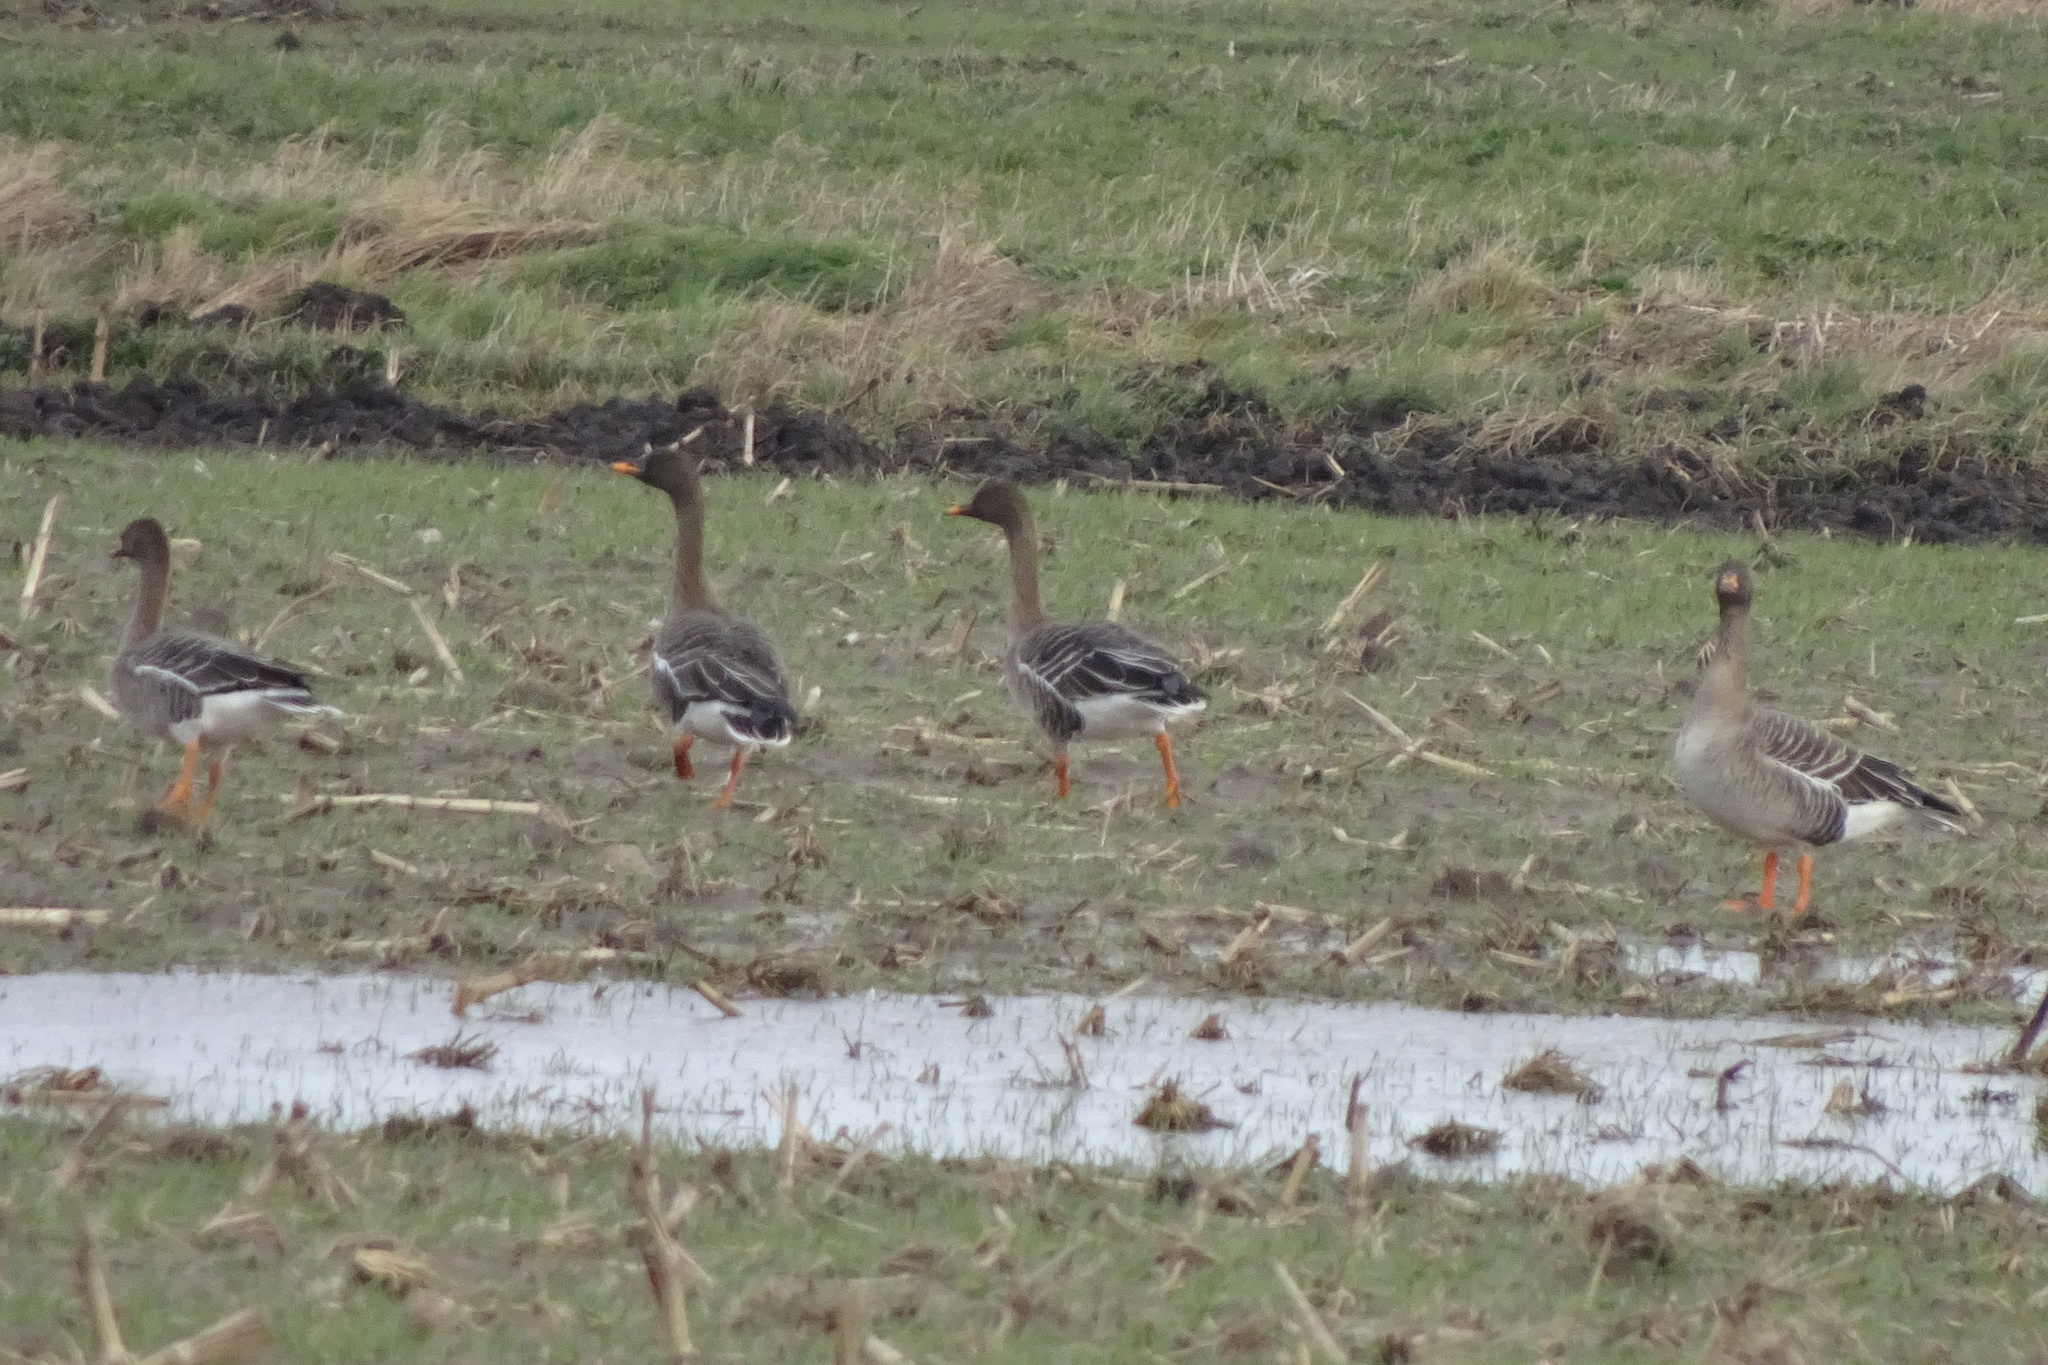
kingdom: Animalia
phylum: Chordata
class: Aves
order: Anseriformes
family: Anatidae
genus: Anser
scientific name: Anser fabalis
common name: Bean goose
